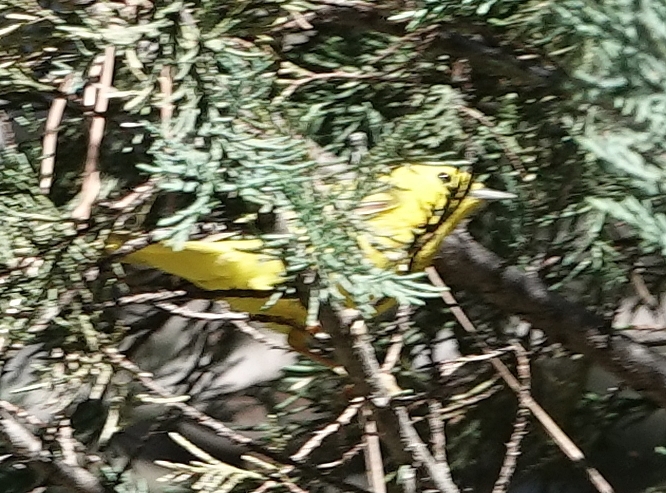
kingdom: Animalia
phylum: Chordata
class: Aves
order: Passeriformes
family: Parulidae
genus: Setophaga
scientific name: Setophaga petechia
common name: Yellow warbler
